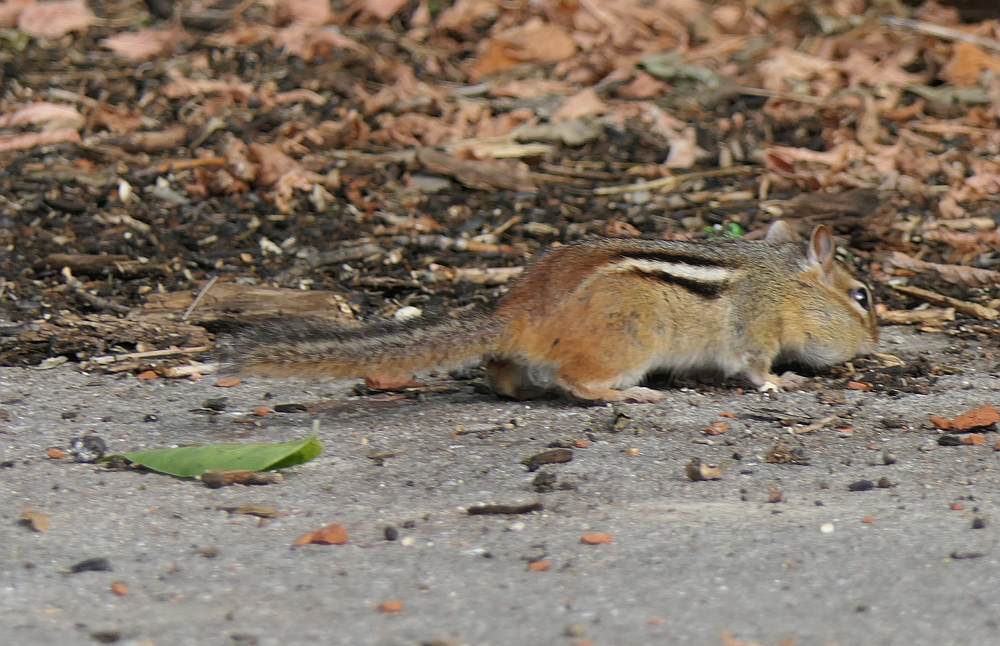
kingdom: Animalia
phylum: Chordata
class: Mammalia
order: Rodentia
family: Sciuridae
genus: Tamias
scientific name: Tamias striatus
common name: Eastern chipmunk
